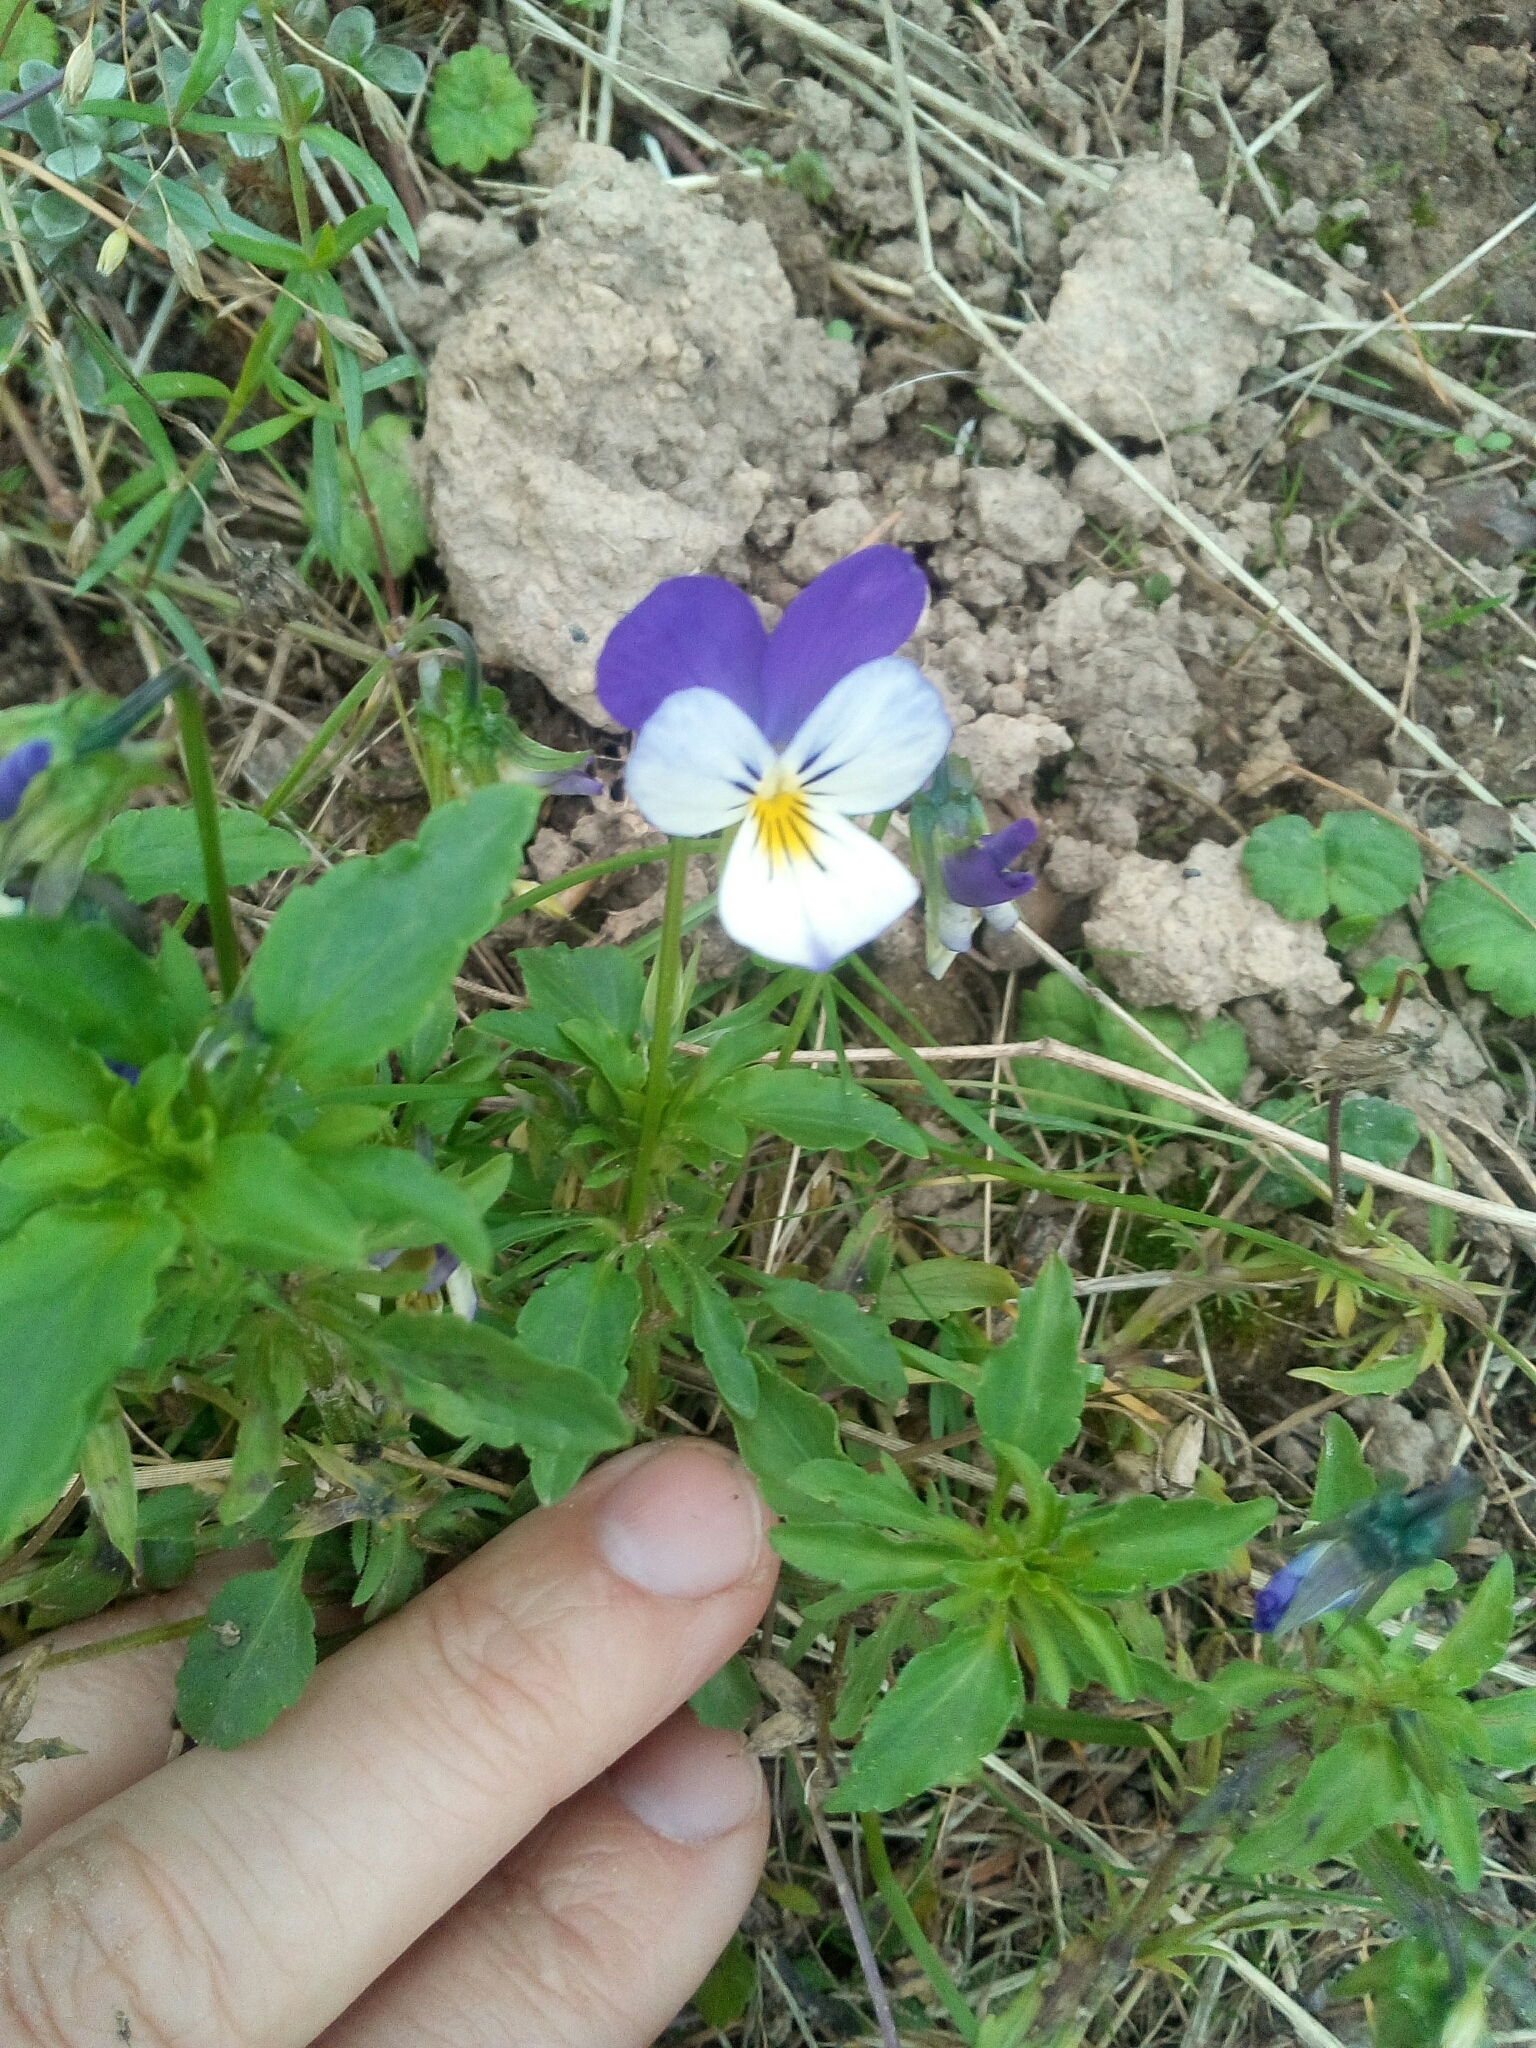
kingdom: Plantae
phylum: Tracheophyta
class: Magnoliopsida
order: Malpighiales
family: Violaceae
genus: Viola
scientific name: Viola tricolor
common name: Pansy
